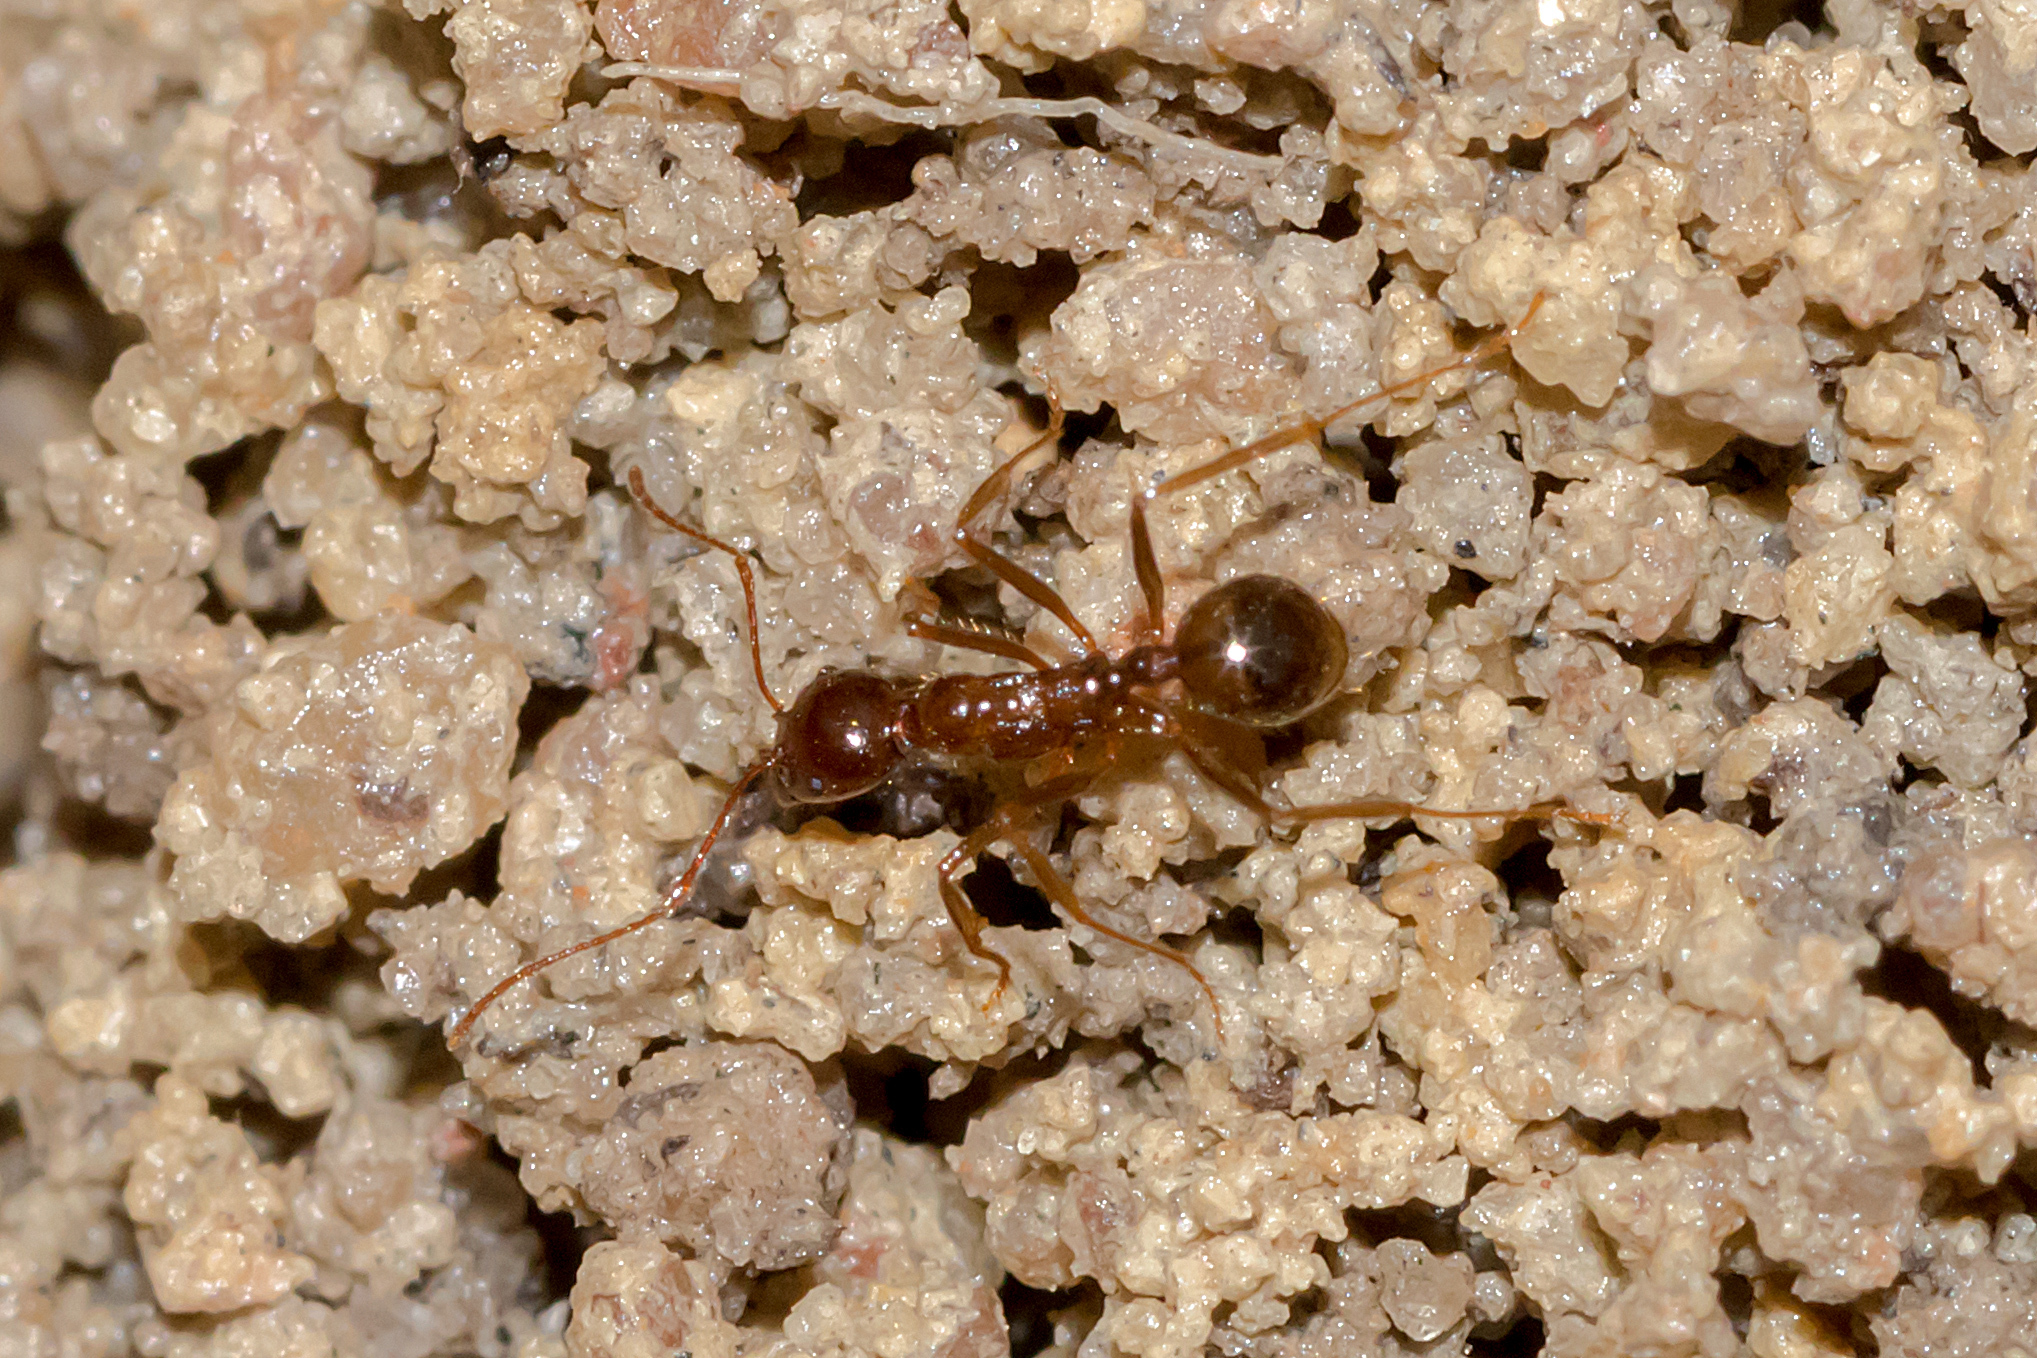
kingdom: Animalia
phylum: Arthropoda
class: Insecta
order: Hymenoptera
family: Formicidae
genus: Aphaenogaster
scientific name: Aphaenogaster longiceps
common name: Funnel ant
